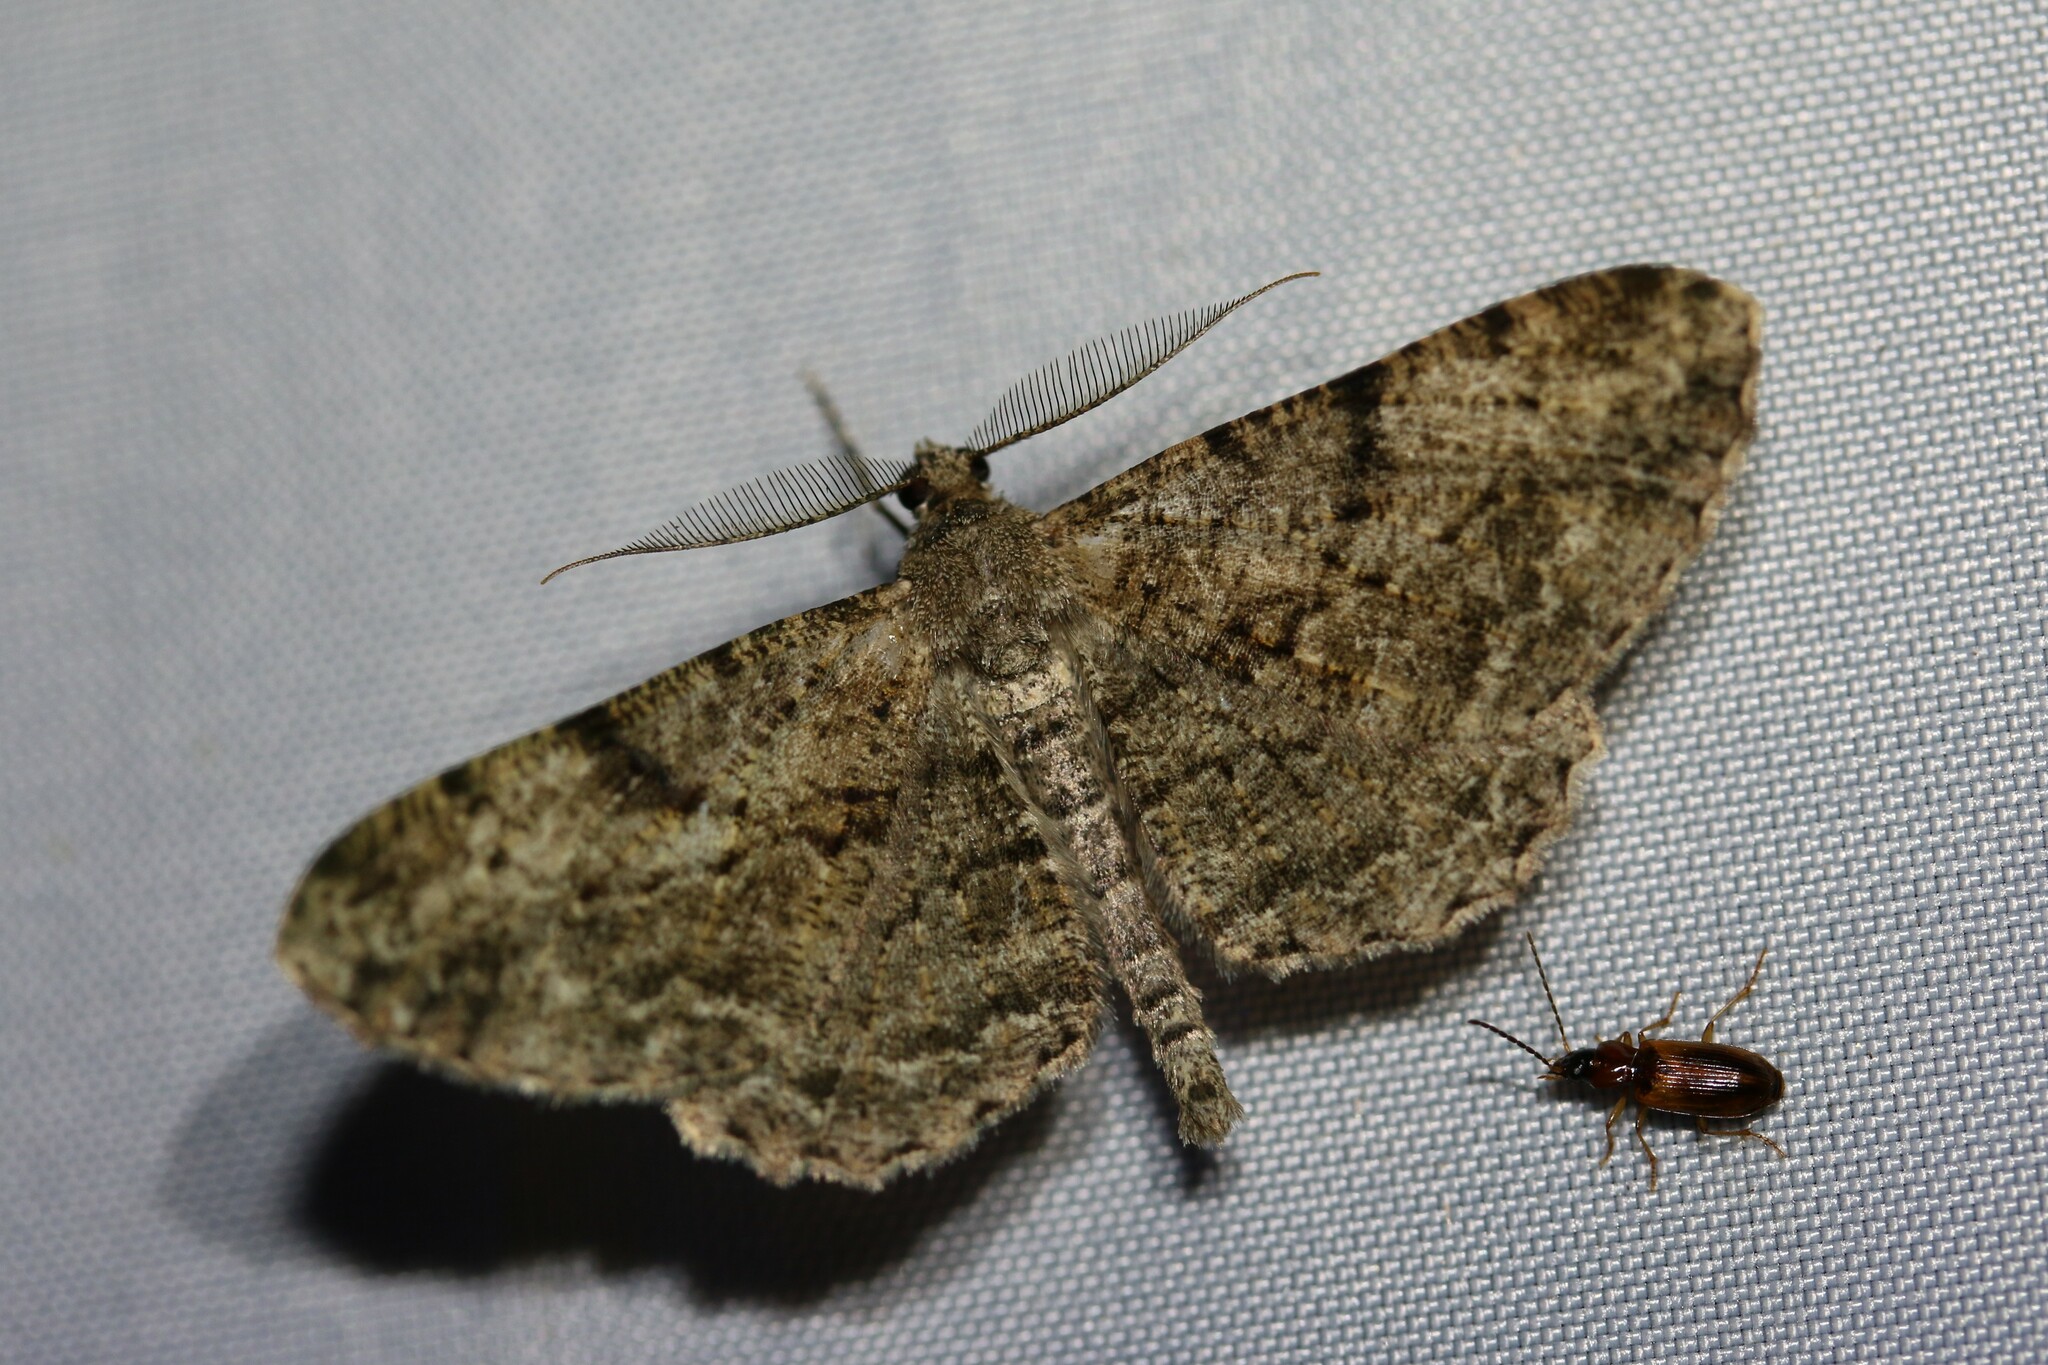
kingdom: Animalia
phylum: Arthropoda
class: Insecta
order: Lepidoptera
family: Geometridae
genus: Peribatodes
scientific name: Peribatodes rhomboidaria
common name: Willow beauty
